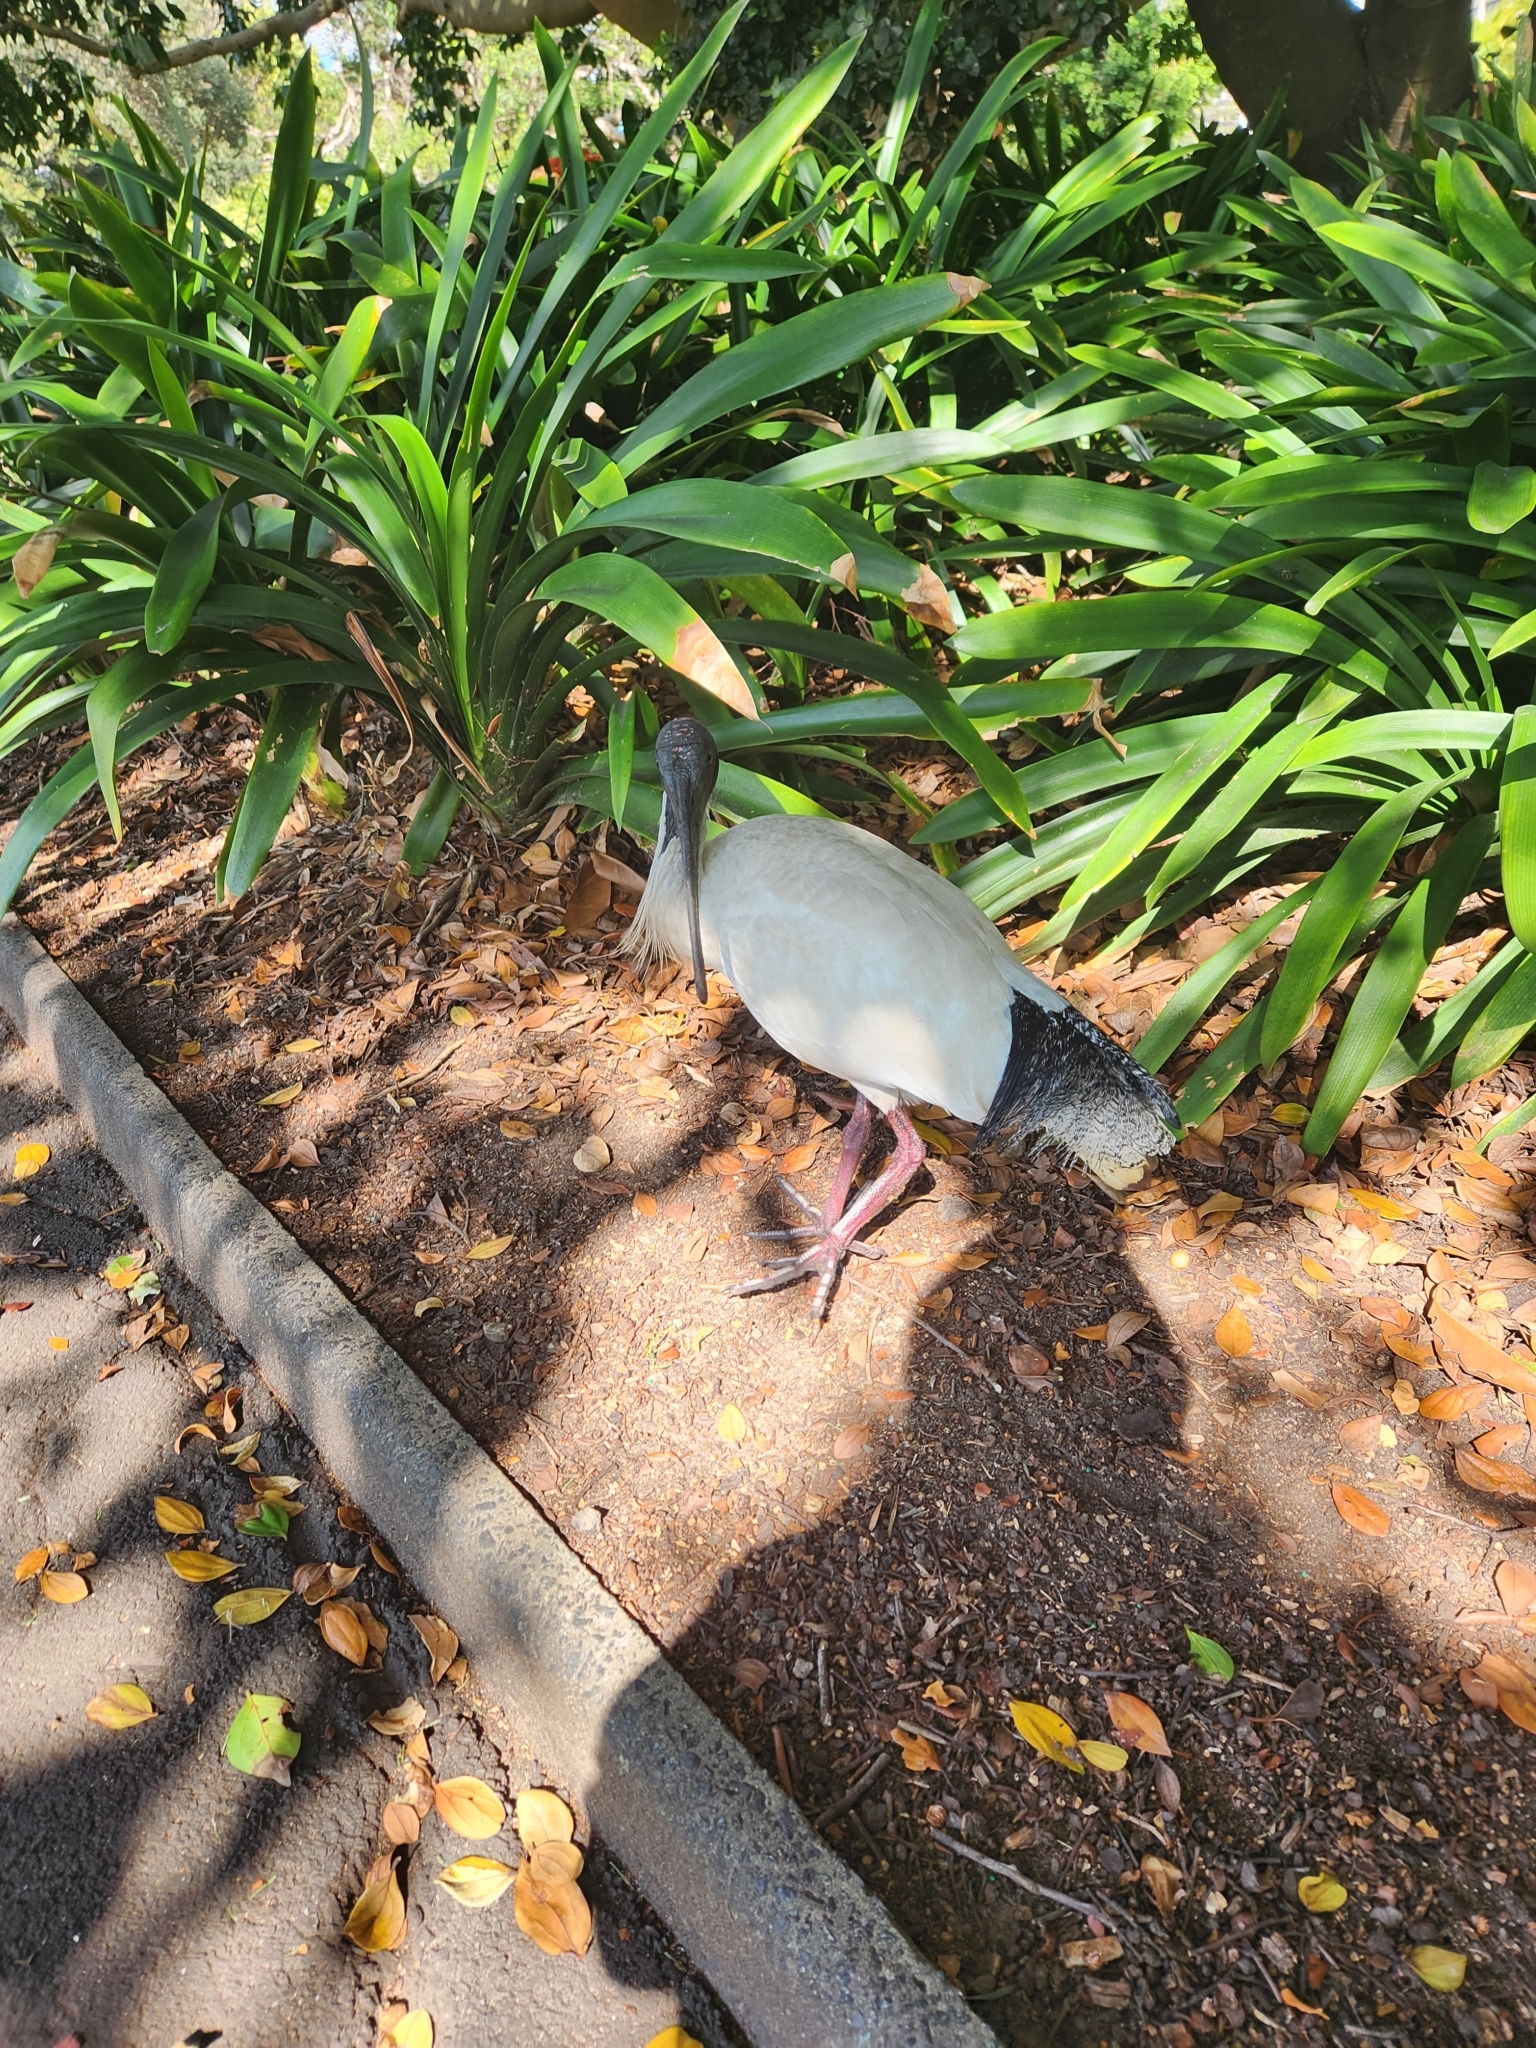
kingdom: Animalia
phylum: Chordata
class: Aves
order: Pelecaniformes
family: Threskiornithidae
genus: Threskiornis
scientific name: Threskiornis molucca
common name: Australian white ibis
